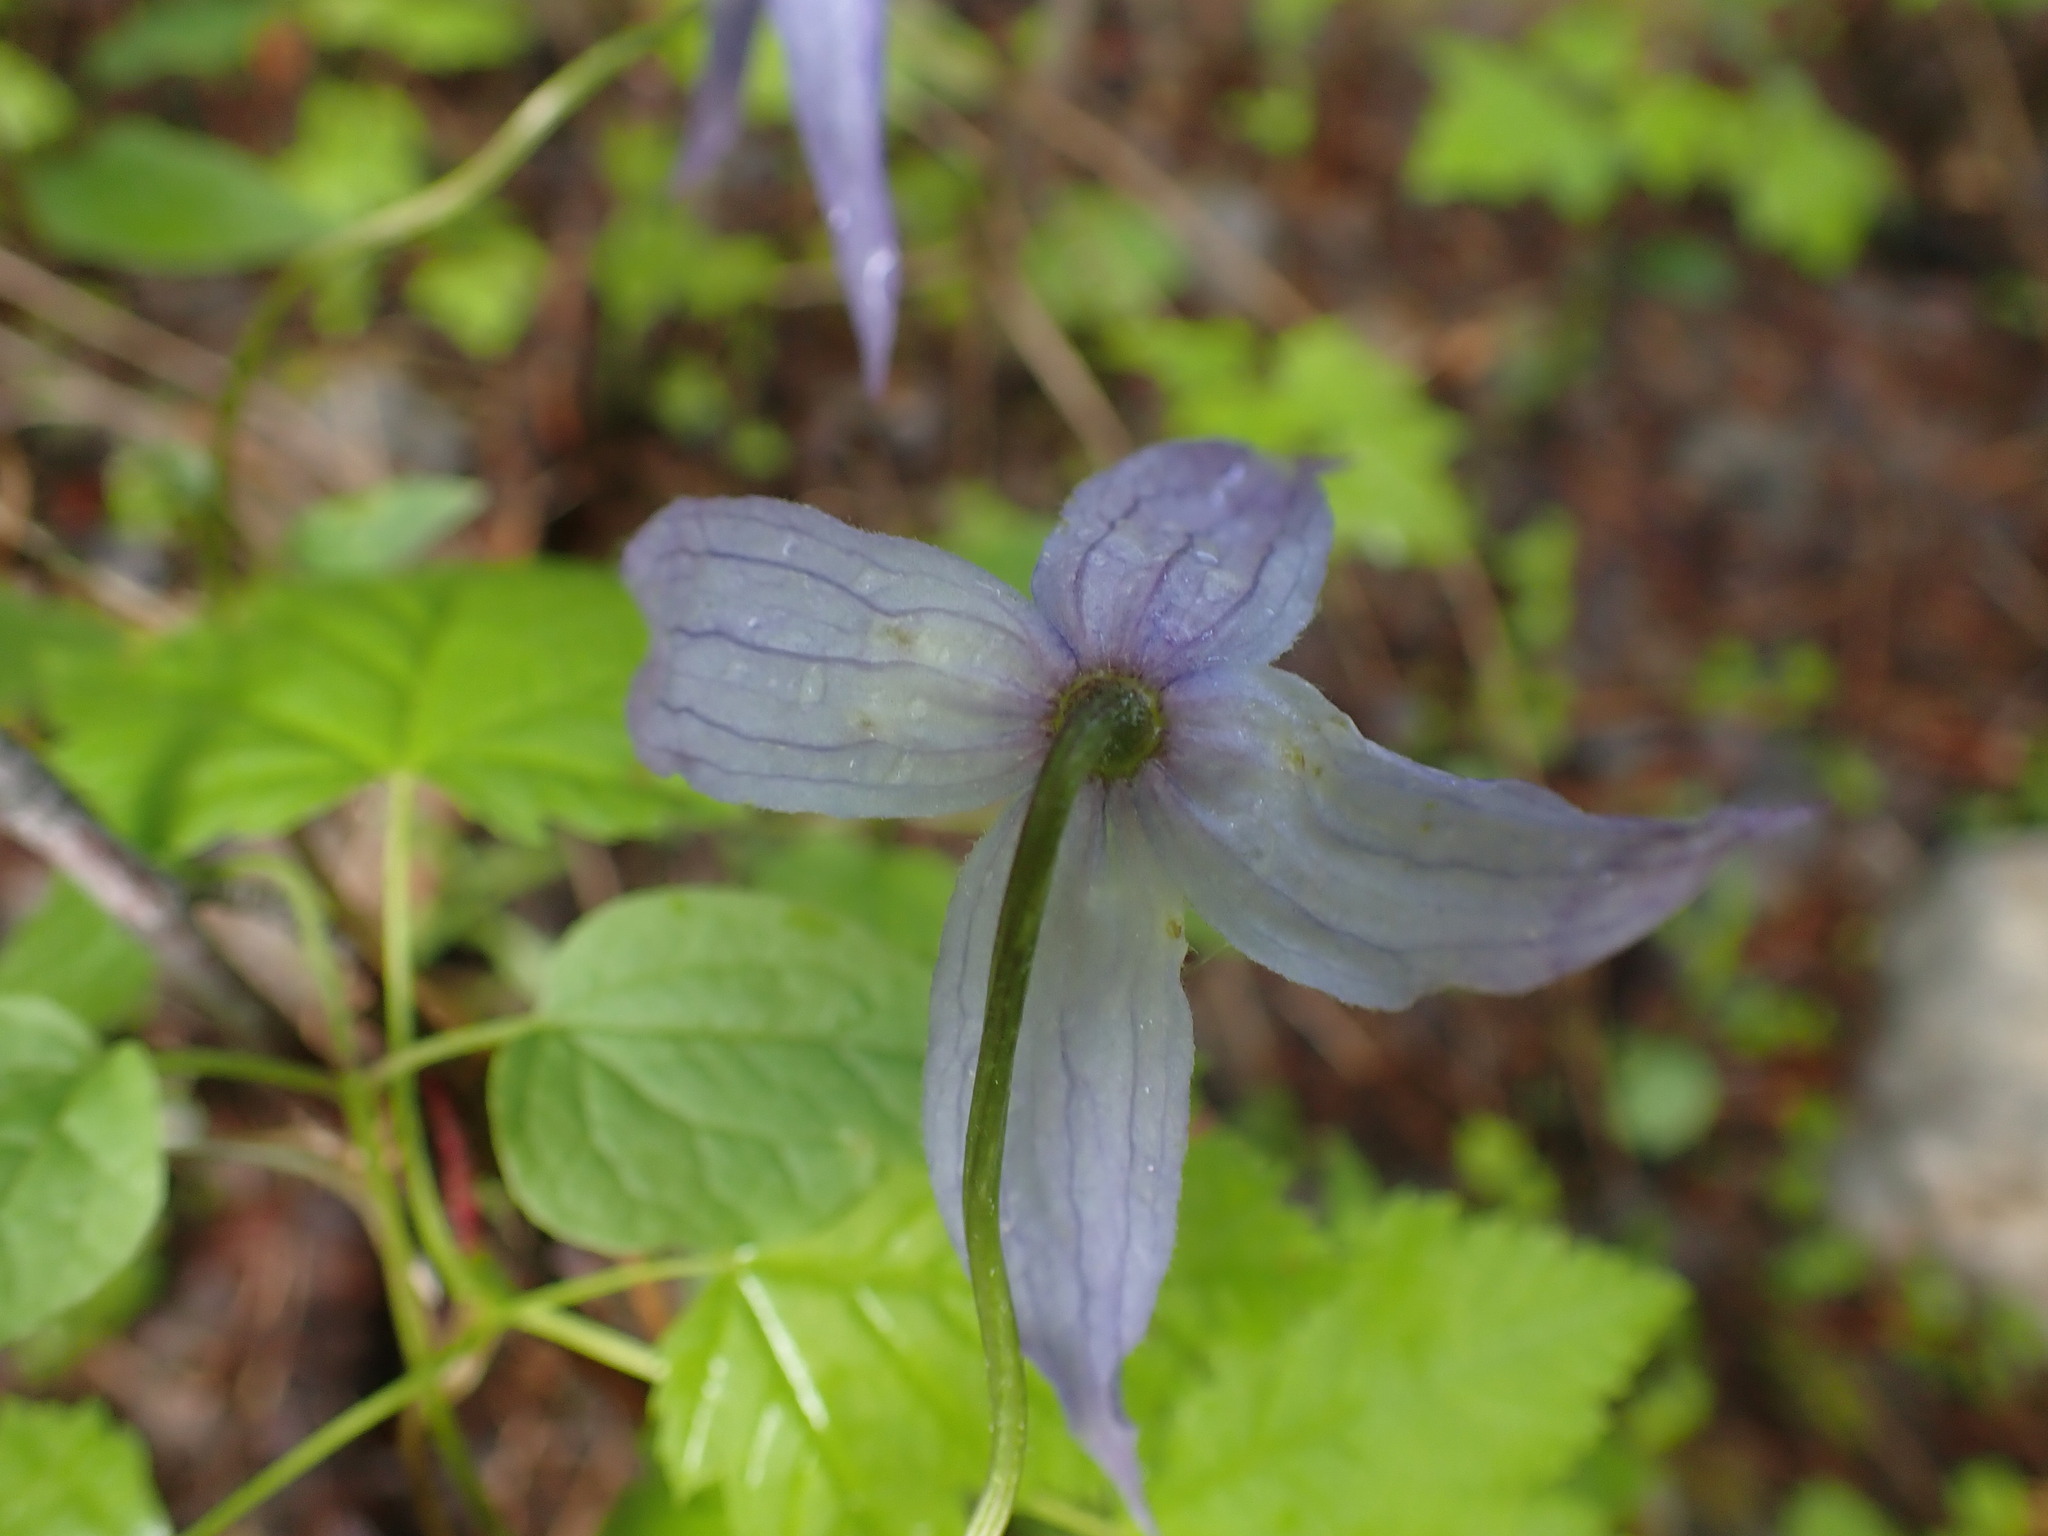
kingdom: Plantae
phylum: Tracheophyta
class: Magnoliopsida
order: Ranunculales
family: Ranunculaceae
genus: Clematis
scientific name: Clematis occidentalis
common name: Purple clematis
